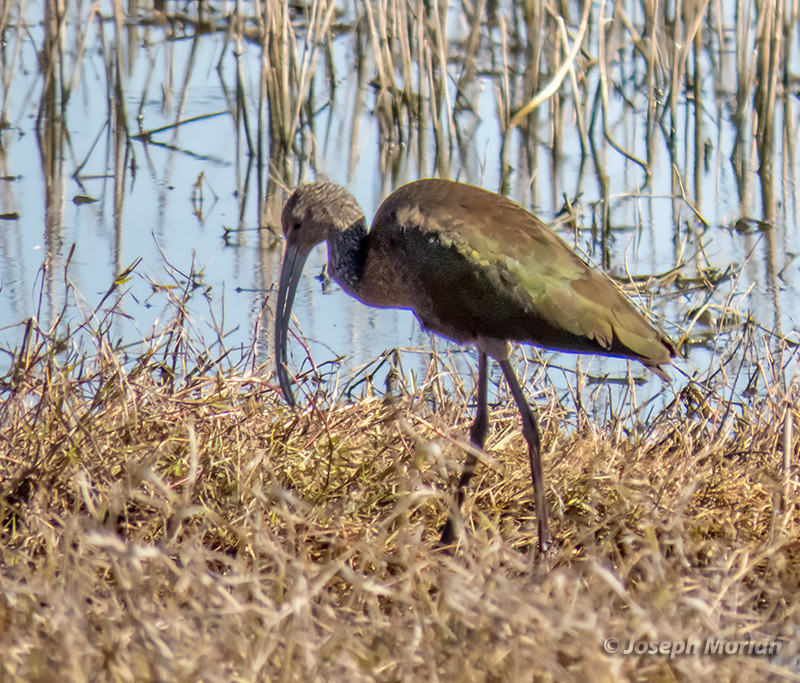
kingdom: Animalia
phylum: Chordata
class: Aves
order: Pelecaniformes
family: Threskiornithidae
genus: Plegadis
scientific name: Plegadis chihi
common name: White-faced ibis
